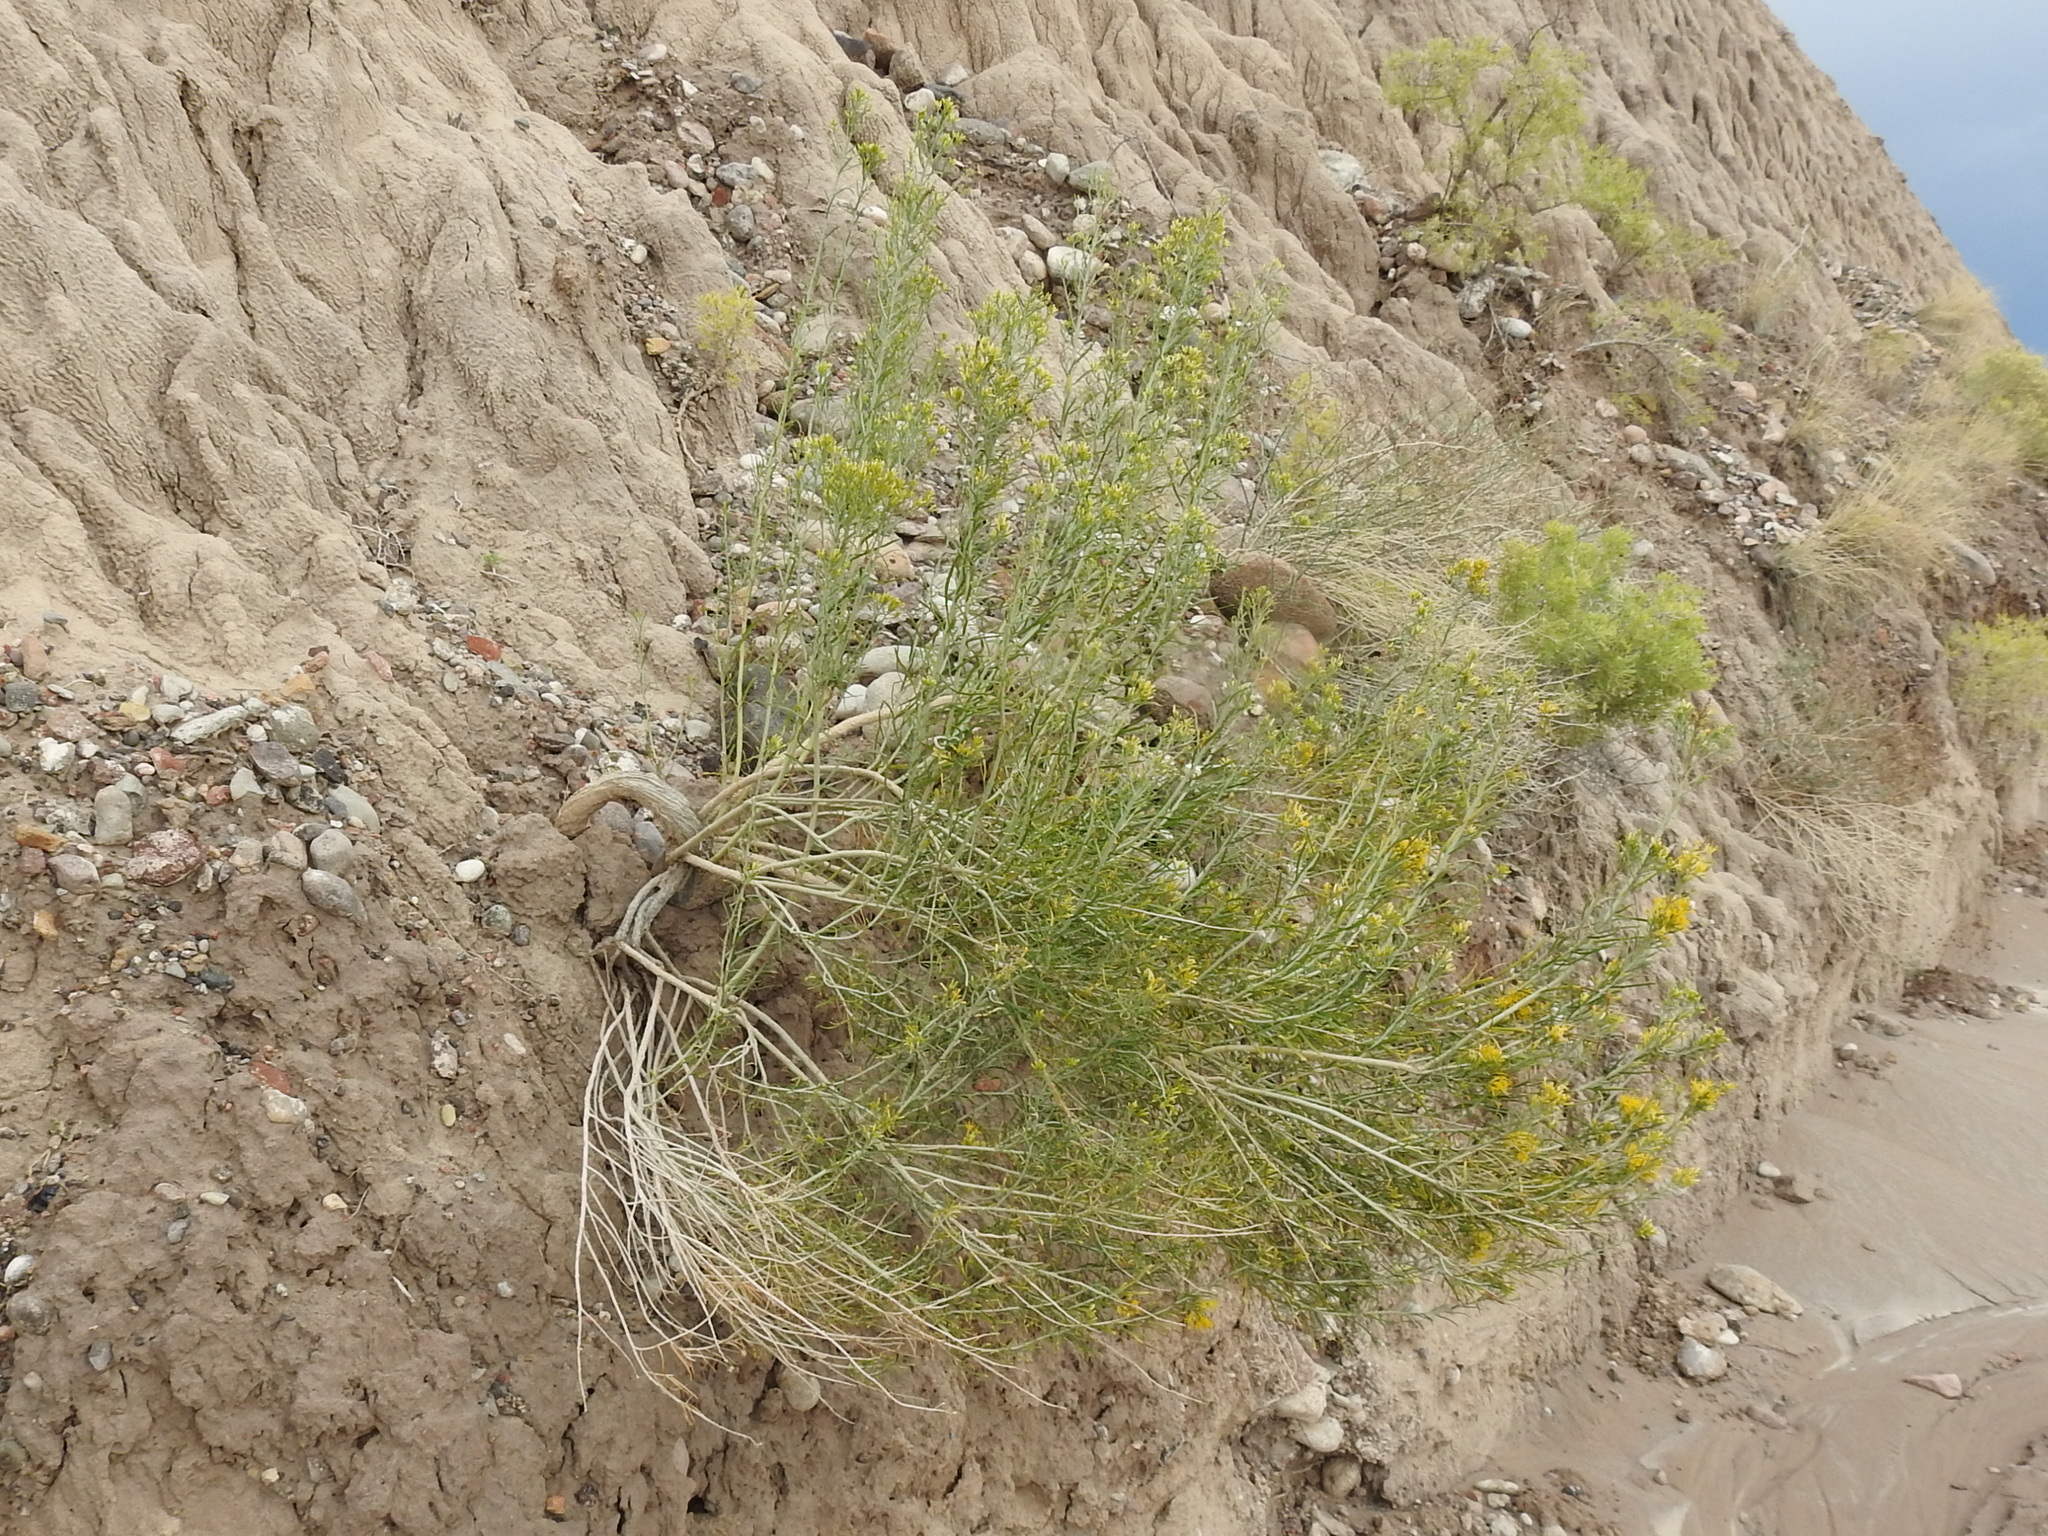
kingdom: Plantae
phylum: Tracheophyta
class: Magnoliopsida
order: Asterales
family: Asteraceae
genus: Ericameria
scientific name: Ericameria nauseosa
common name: Rubber rabbitbrush
